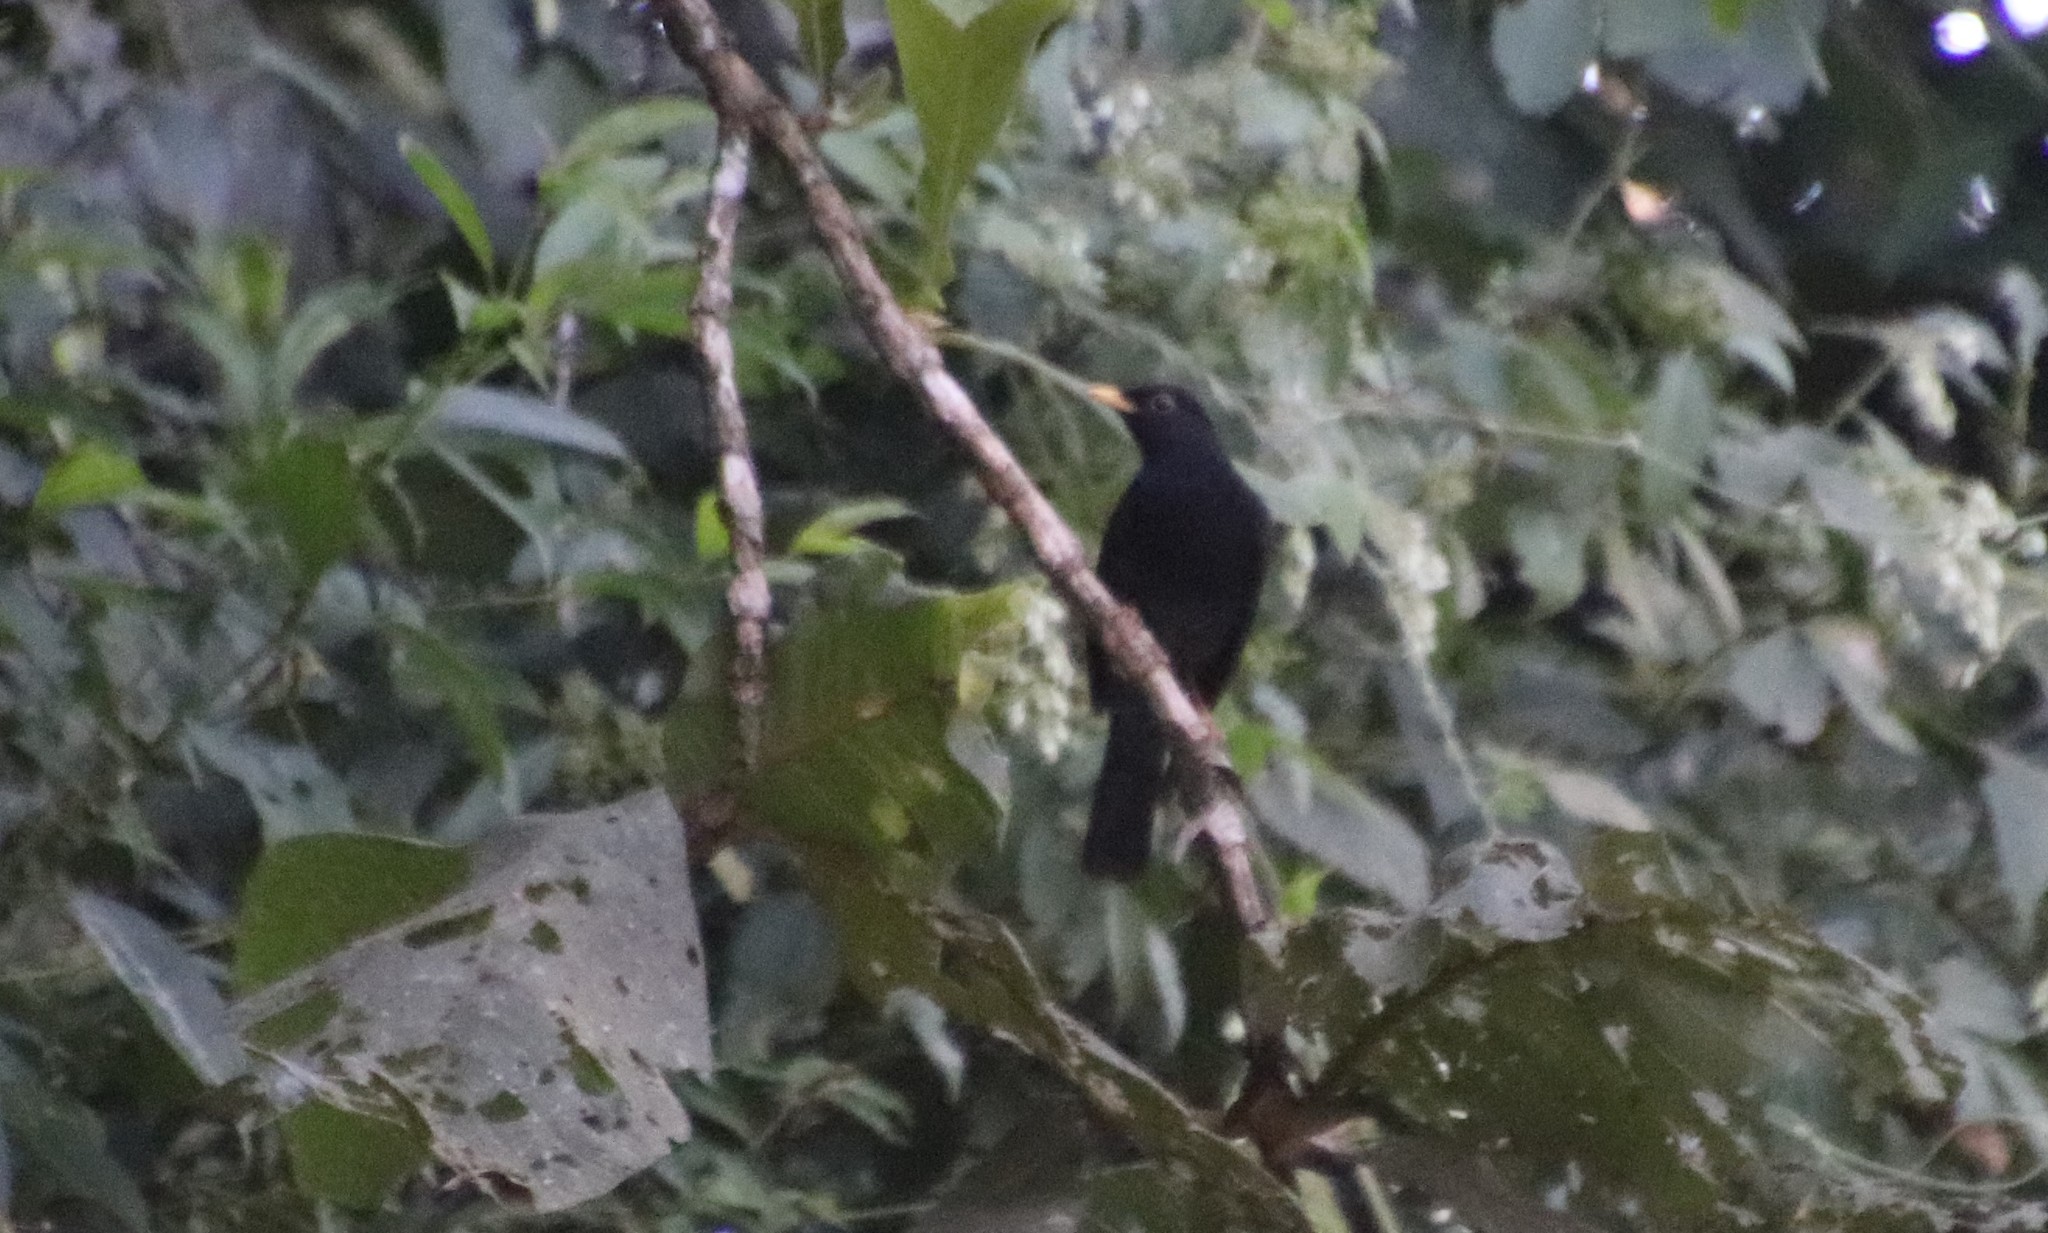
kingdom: Animalia
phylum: Chordata
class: Aves
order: Passeriformes
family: Turdidae
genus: Turdus
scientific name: Turdus flavipes
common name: Yellow-legged thrush
